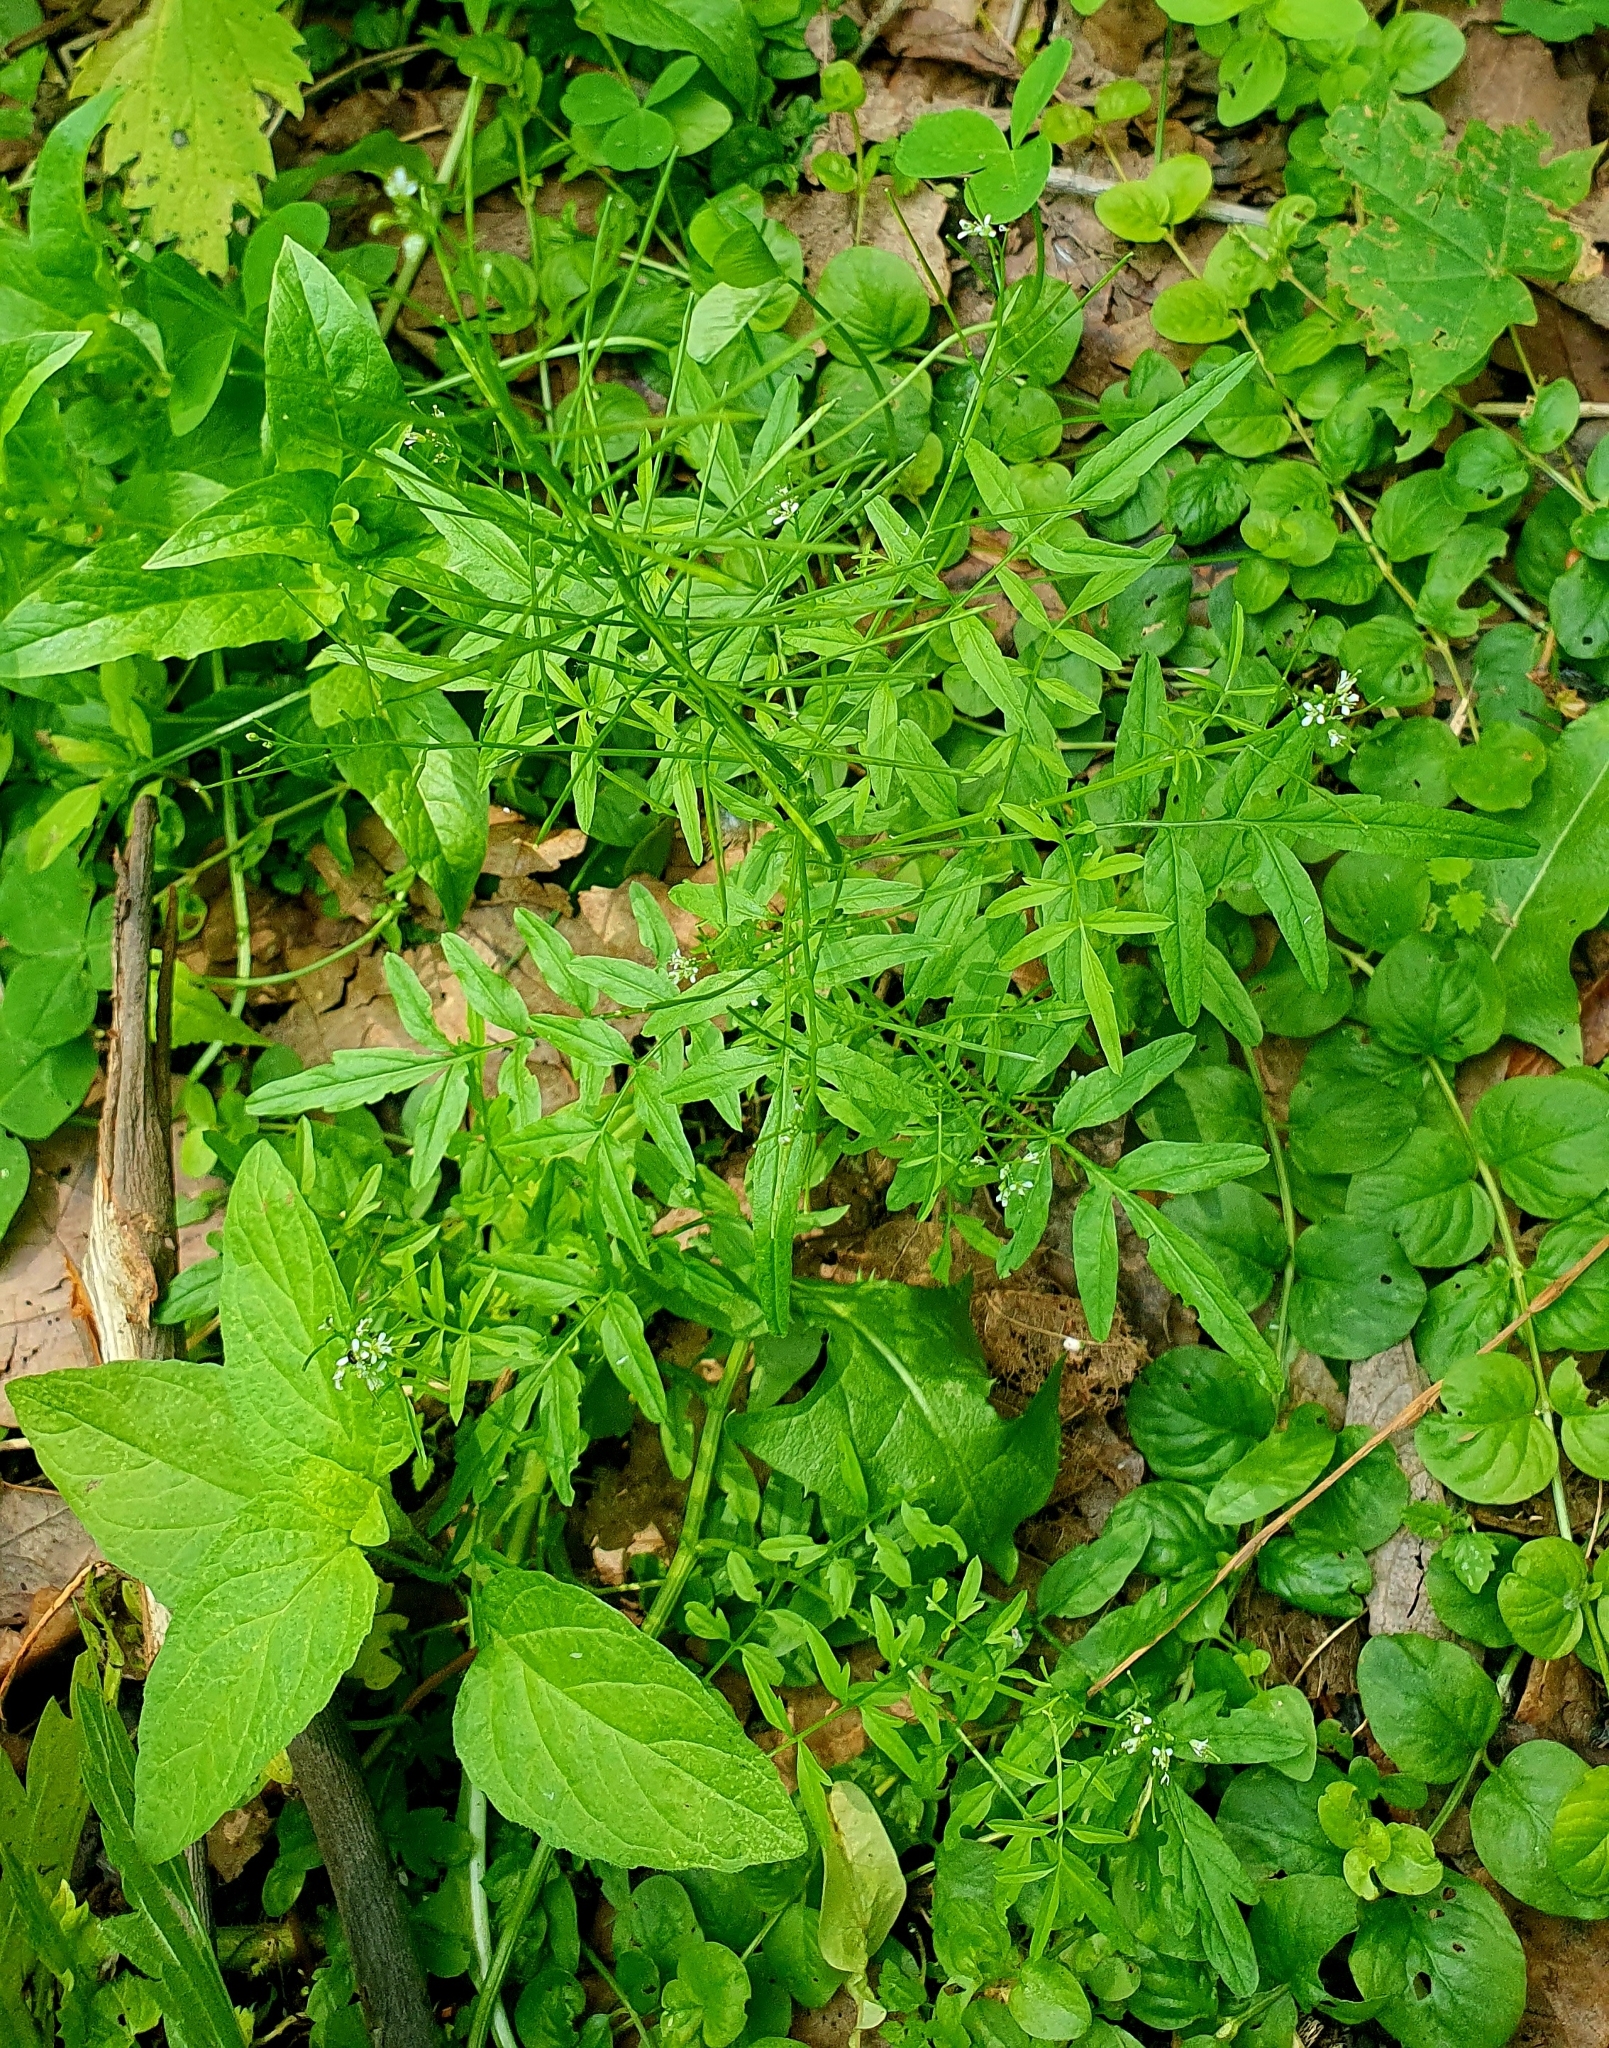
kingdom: Plantae
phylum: Tracheophyta
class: Magnoliopsida
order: Brassicales
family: Brassicaceae
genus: Cardamine
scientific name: Cardamine impatiens
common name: Narrow-leaved bitter-cress
